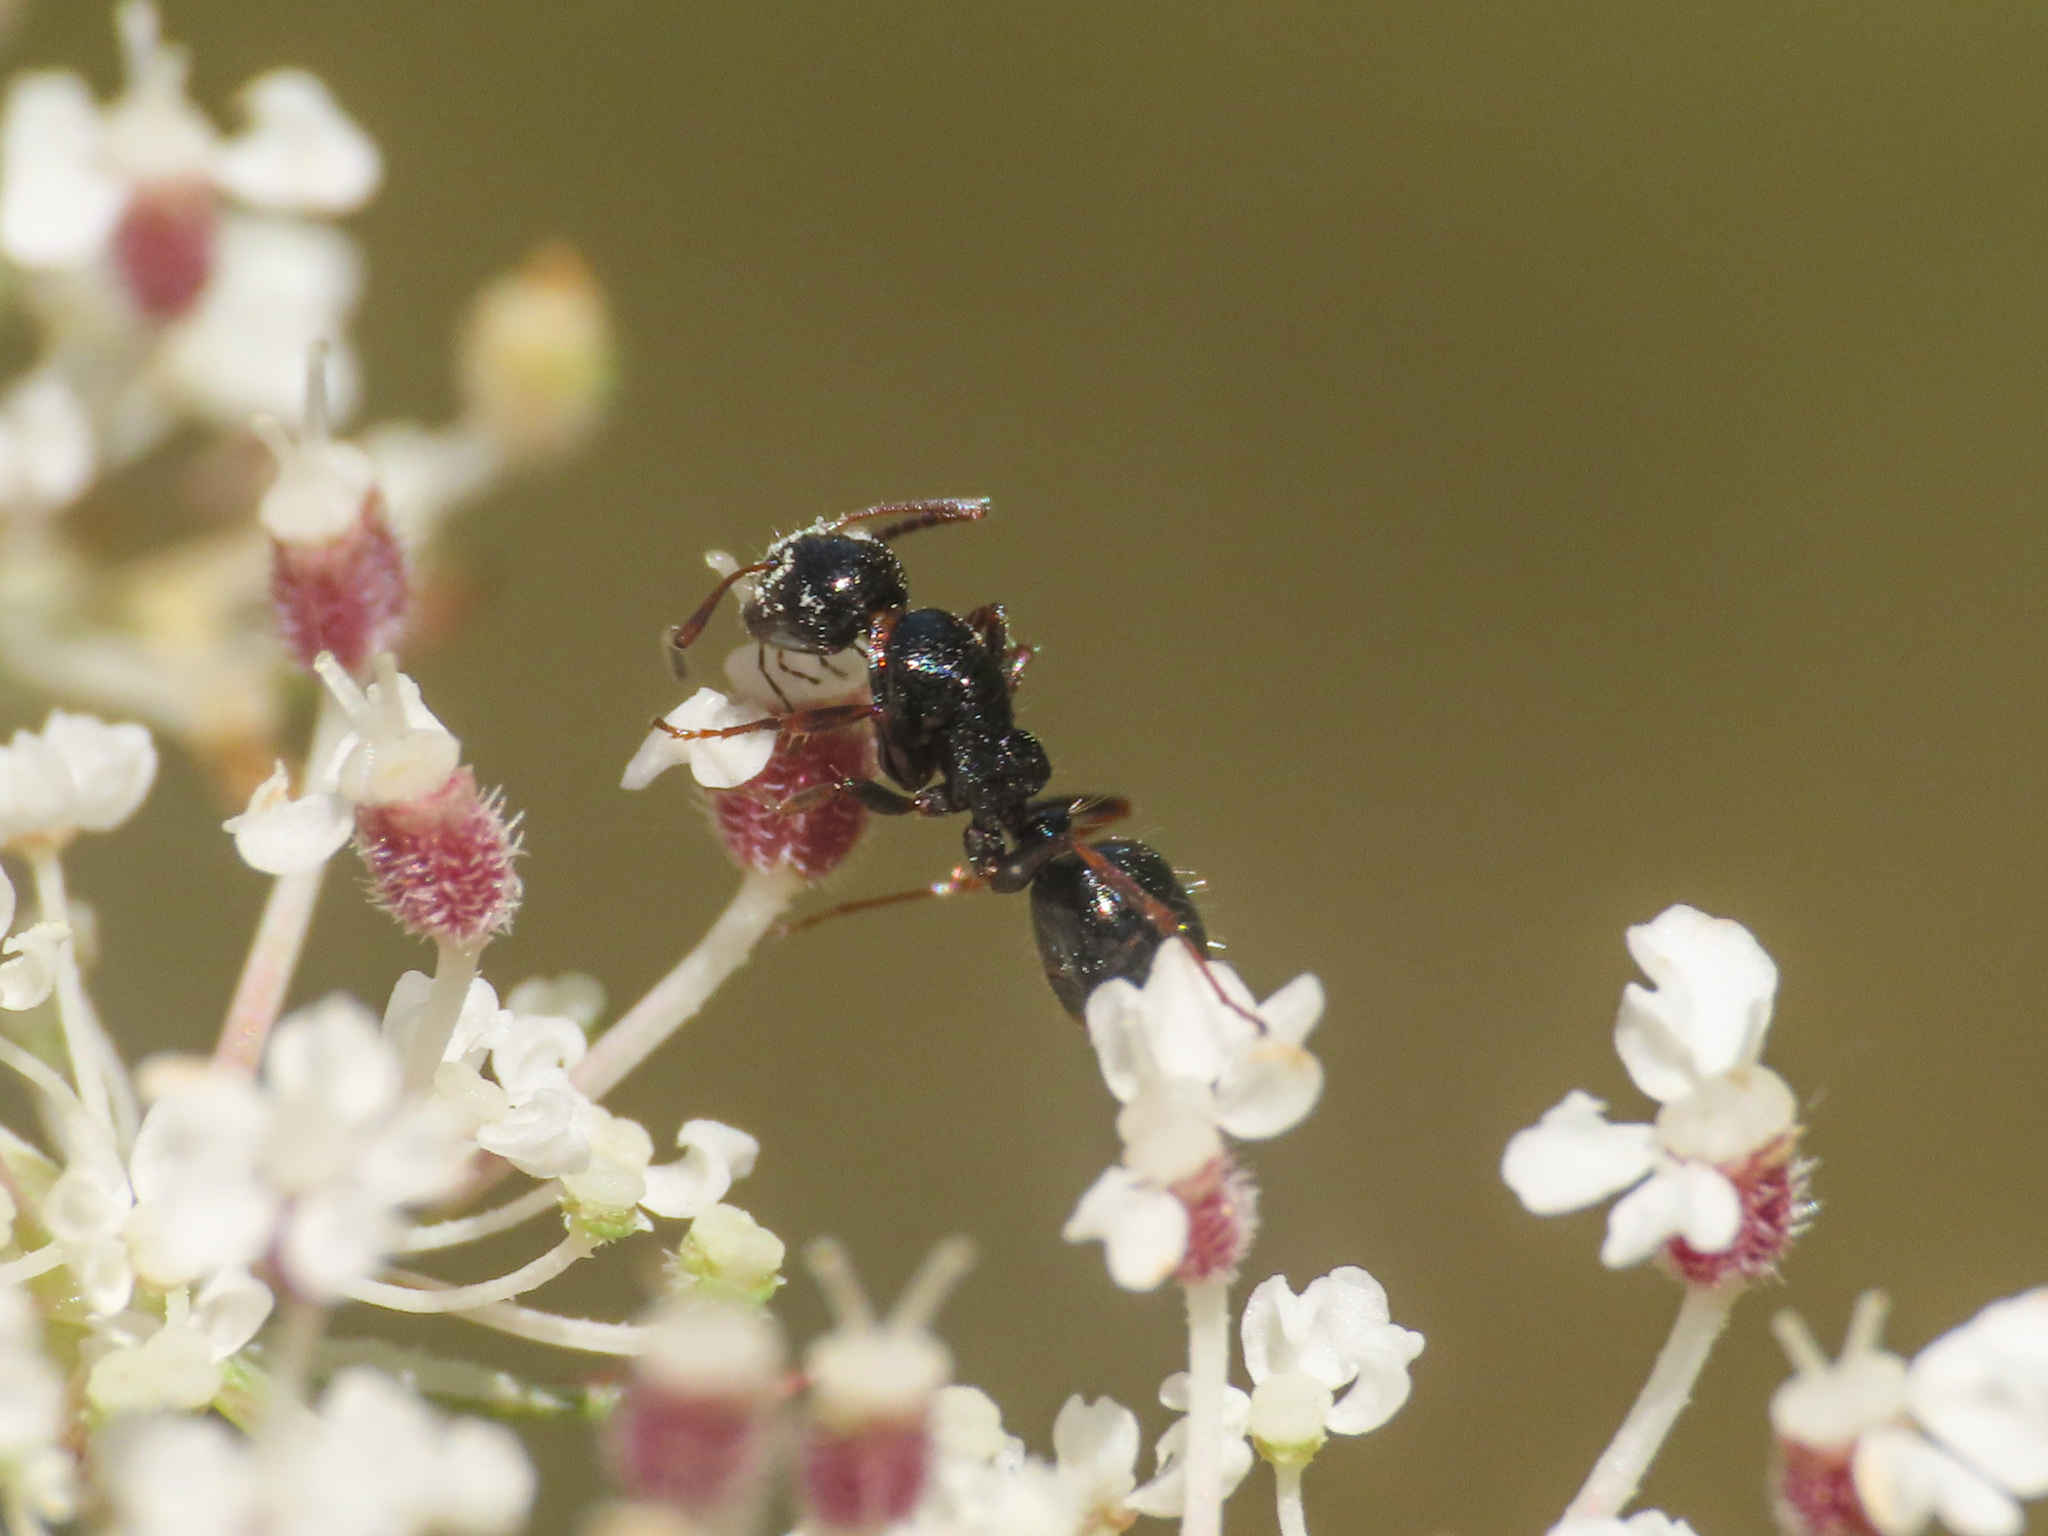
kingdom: Animalia
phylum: Arthropoda
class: Insecta
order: Hymenoptera
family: Formicidae
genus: Camponotus
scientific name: Camponotus piceus
